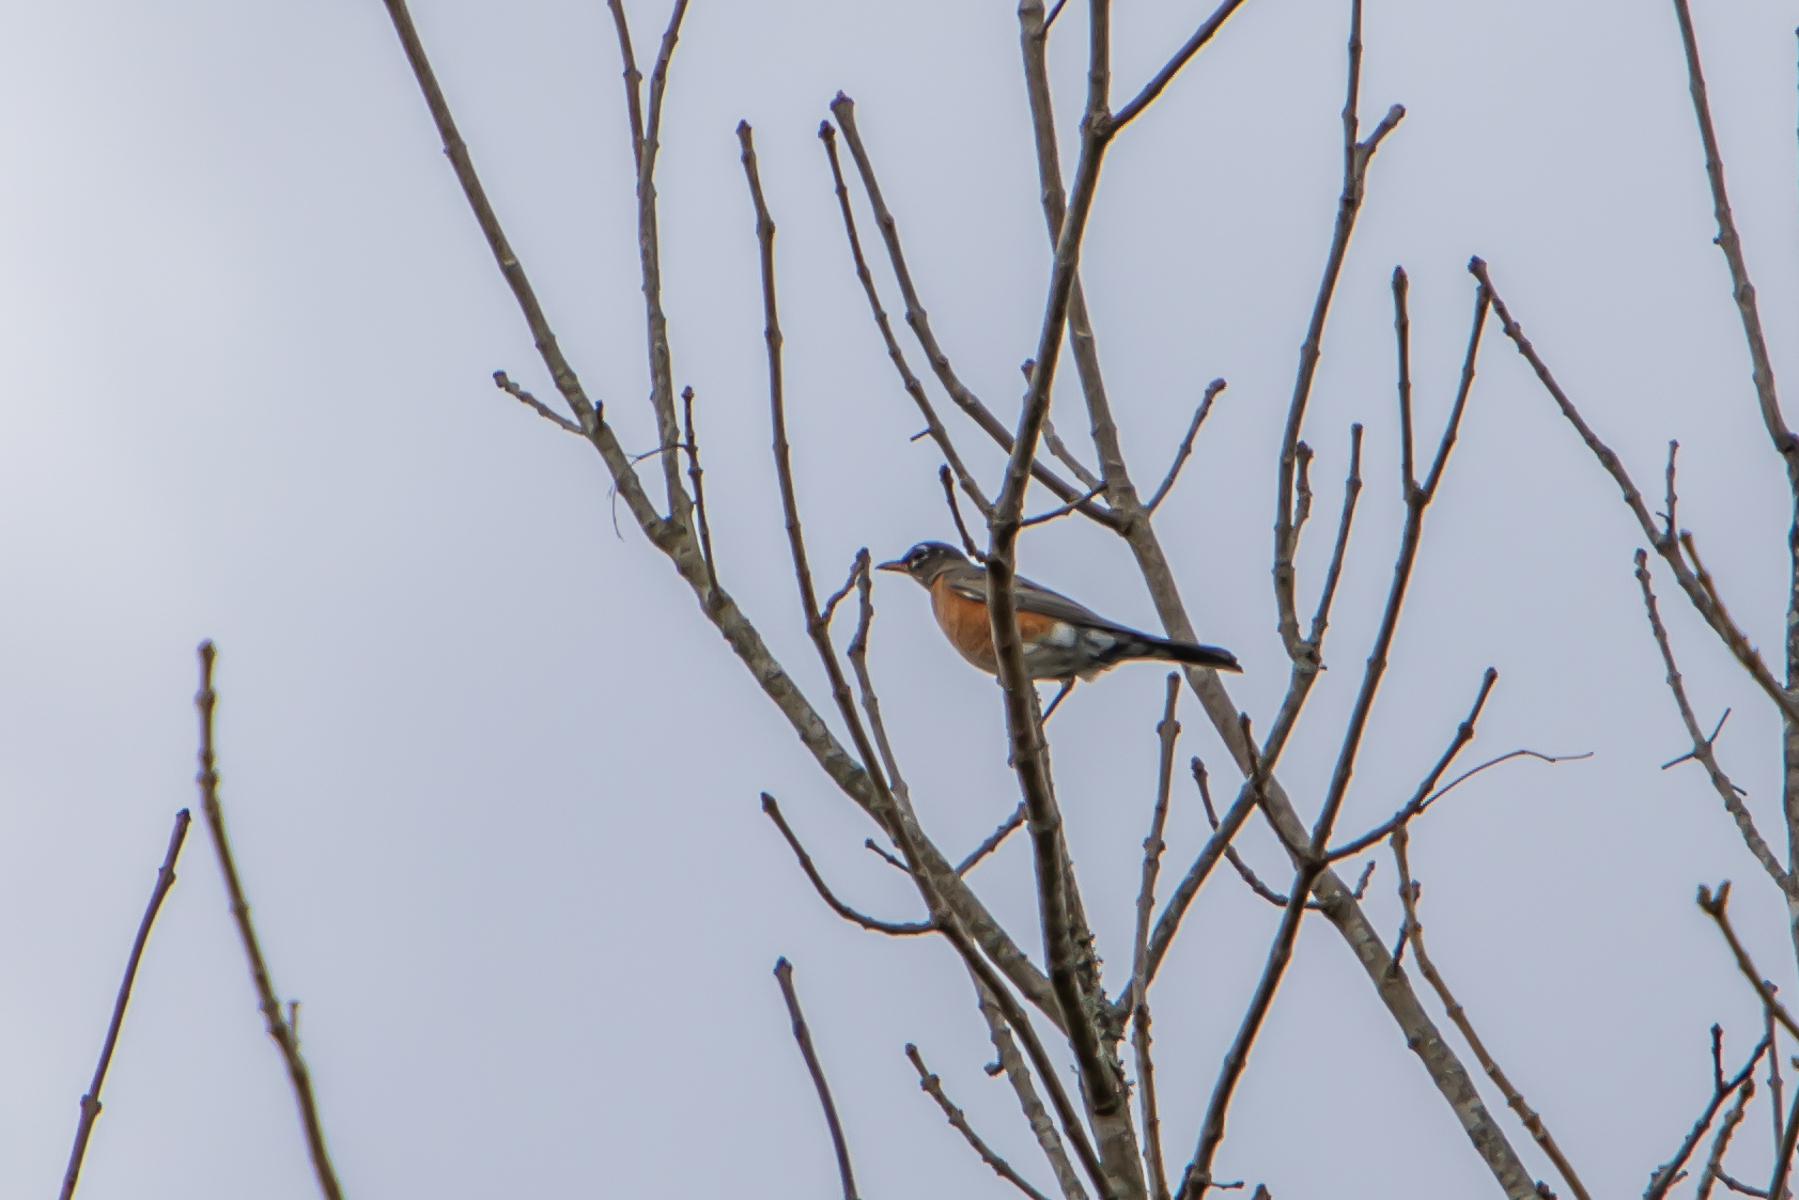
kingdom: Animalia
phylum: Chordata
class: Aves
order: Passeriformes
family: Turdidae
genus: Turdus
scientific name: Turdus migratorius
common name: American robin
